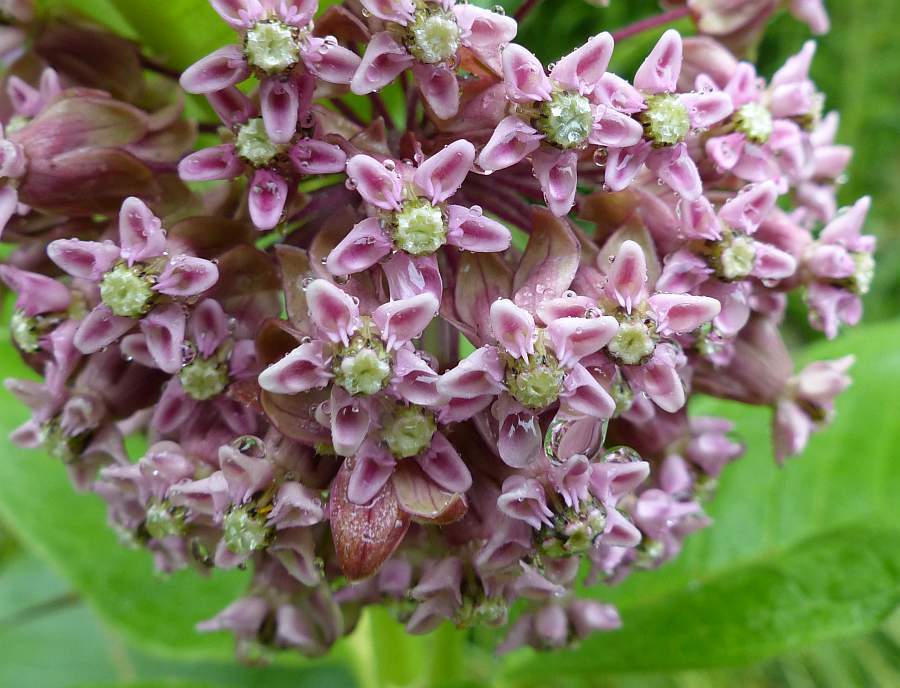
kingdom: Plantae
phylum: Tracheophyta
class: Magnoliopsida
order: Gentianales
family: Apocynaceae
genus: Asclepias
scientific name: Asclepias syriaca
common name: Common milkweed
